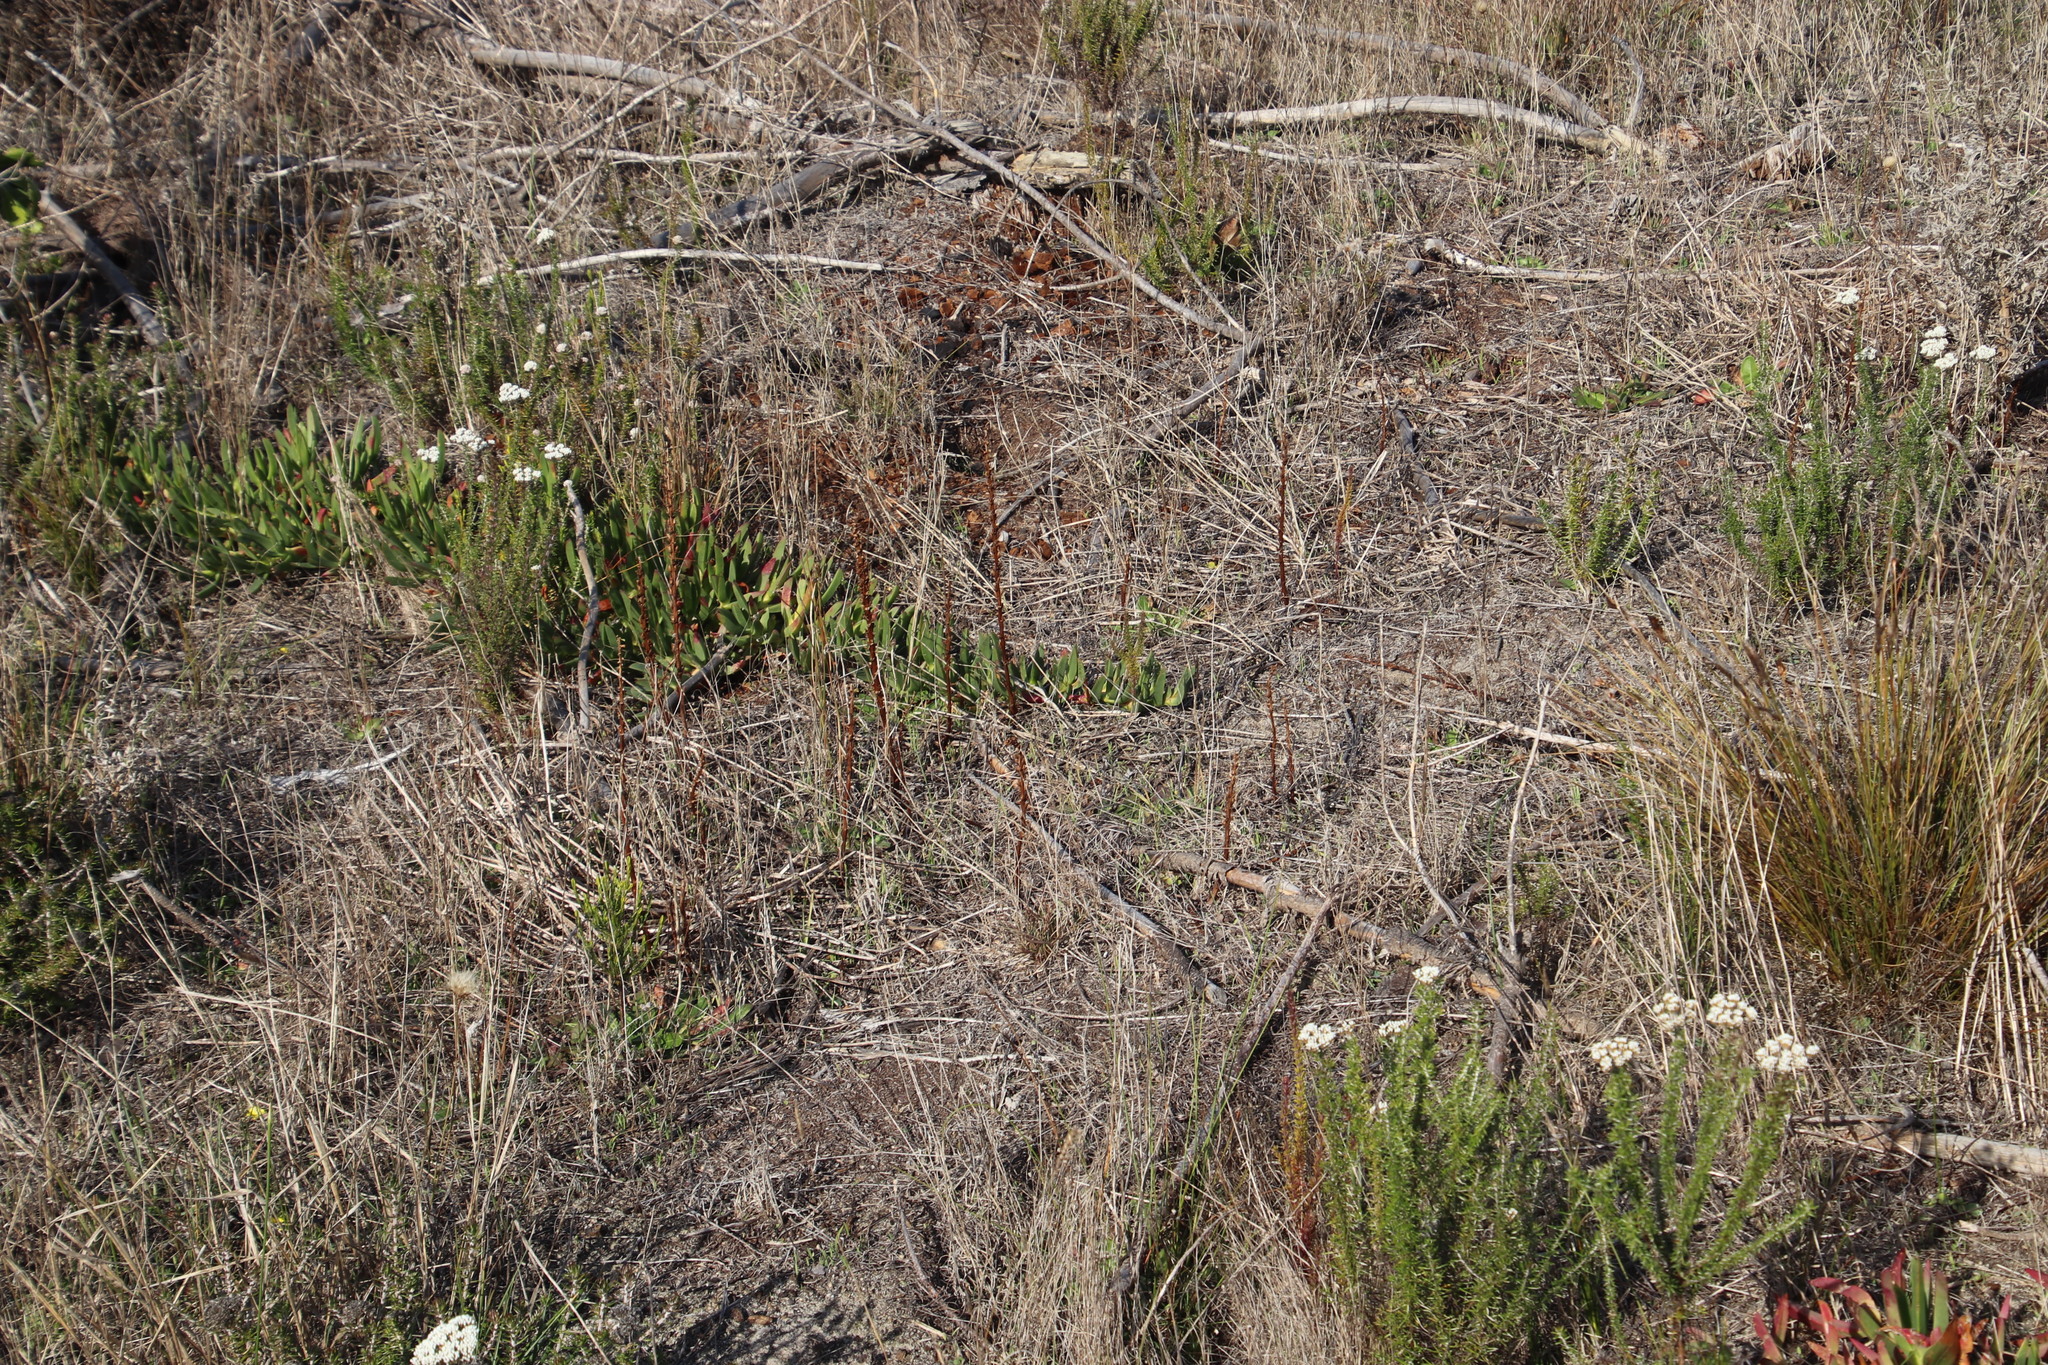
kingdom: Plantae
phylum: Tracheophyta
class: Magnoliopsida
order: Lamiales
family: Orobanchaceae
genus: Orobanche
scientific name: Orobanche minor
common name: Common broomrape
